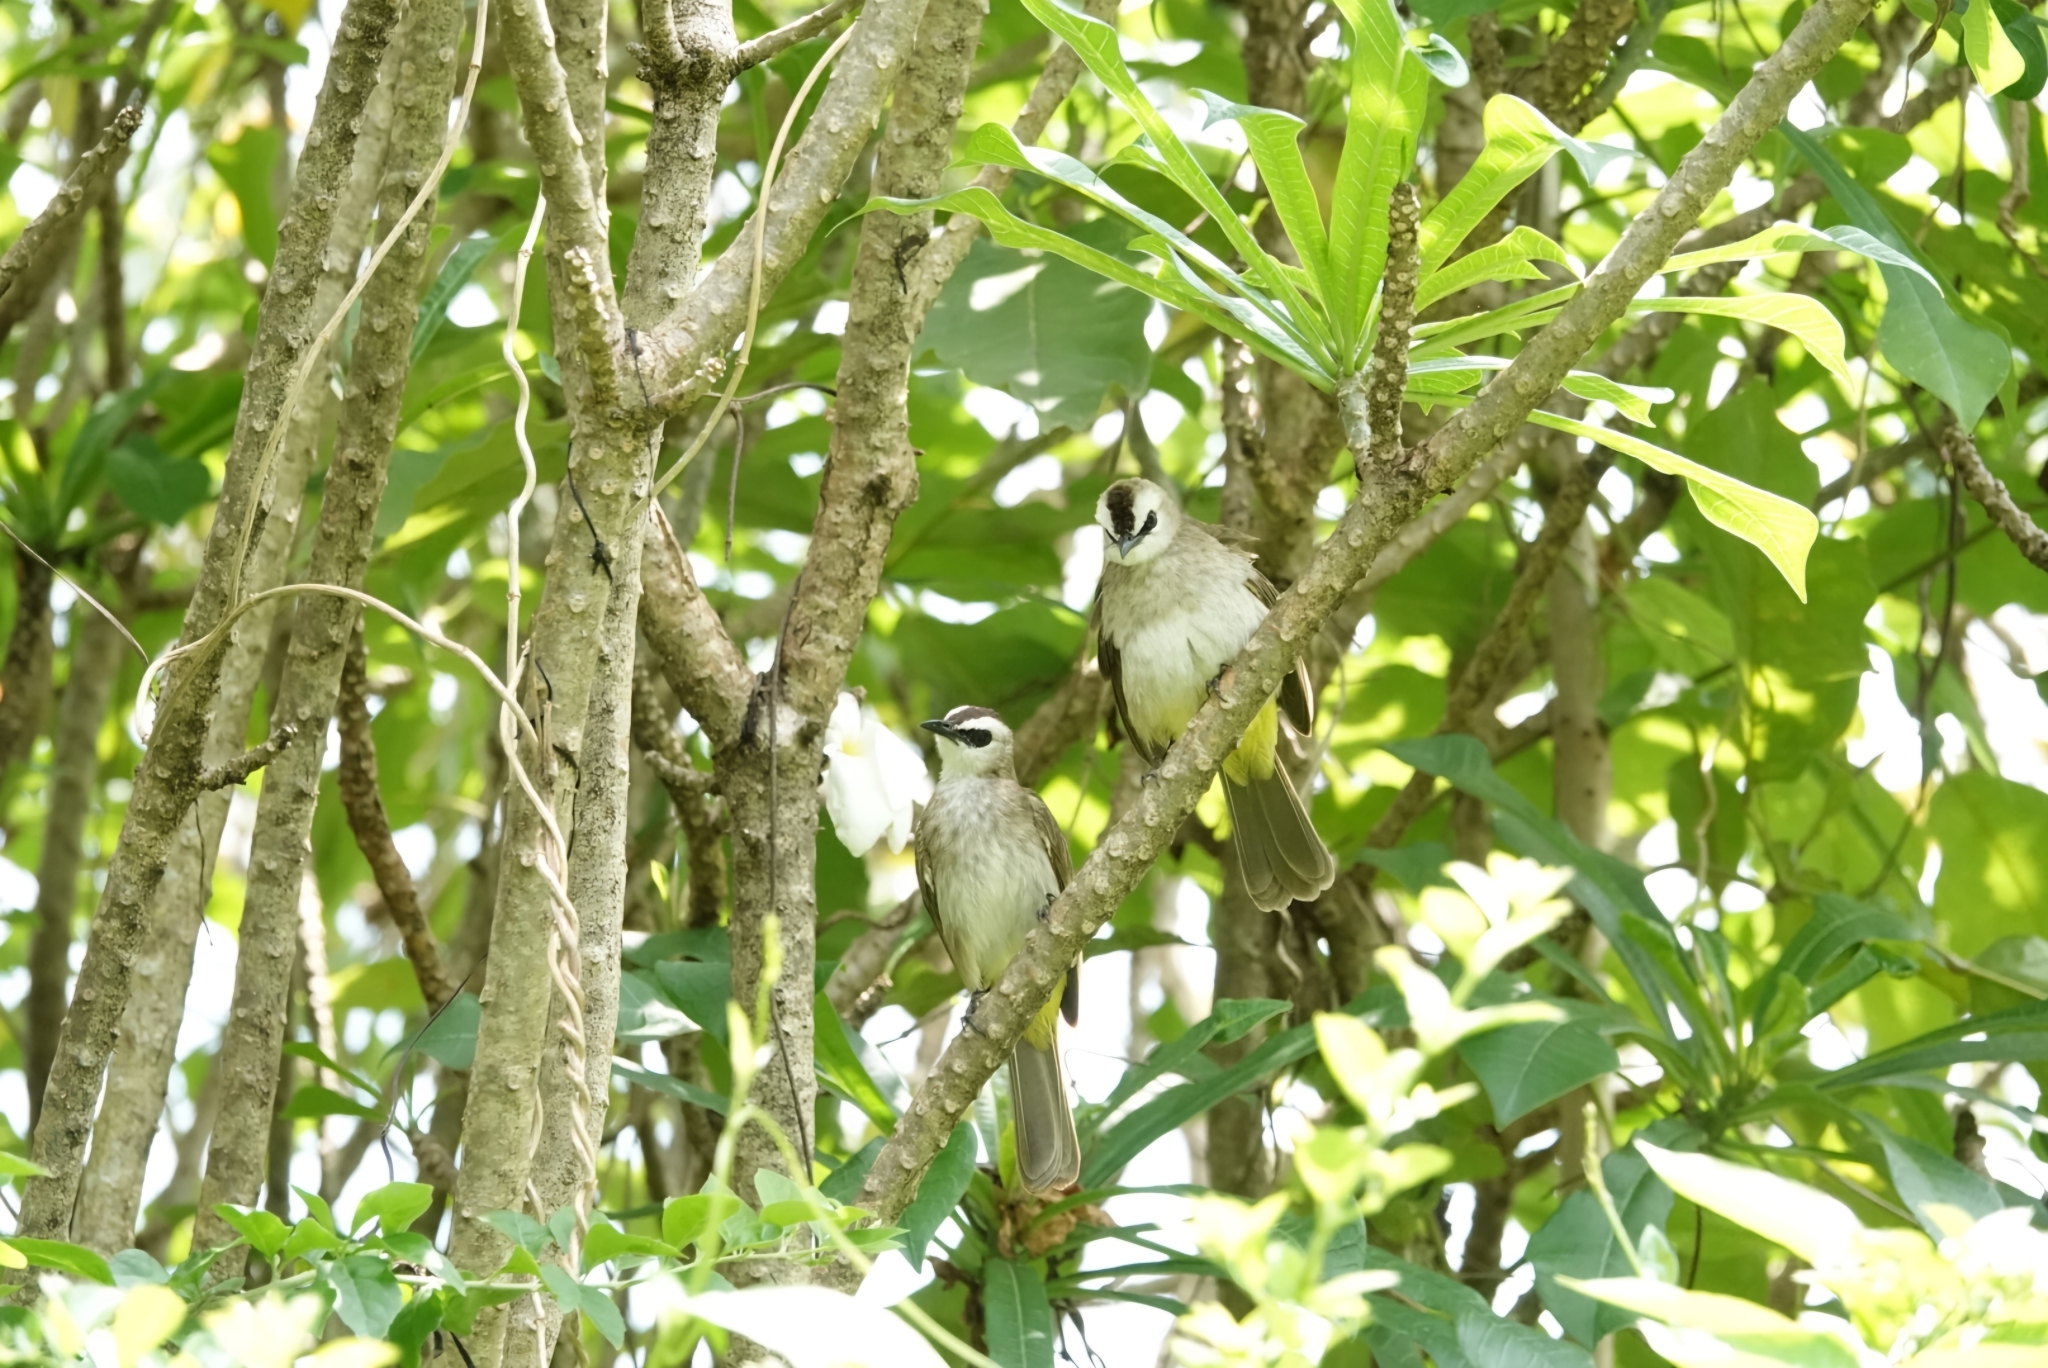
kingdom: Animalia
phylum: Chordata
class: Aves
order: Passeriformes
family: Pycnonotidae
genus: Pycnonotus
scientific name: Pycnonotus goiavier
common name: Yellow-vented bulbul
